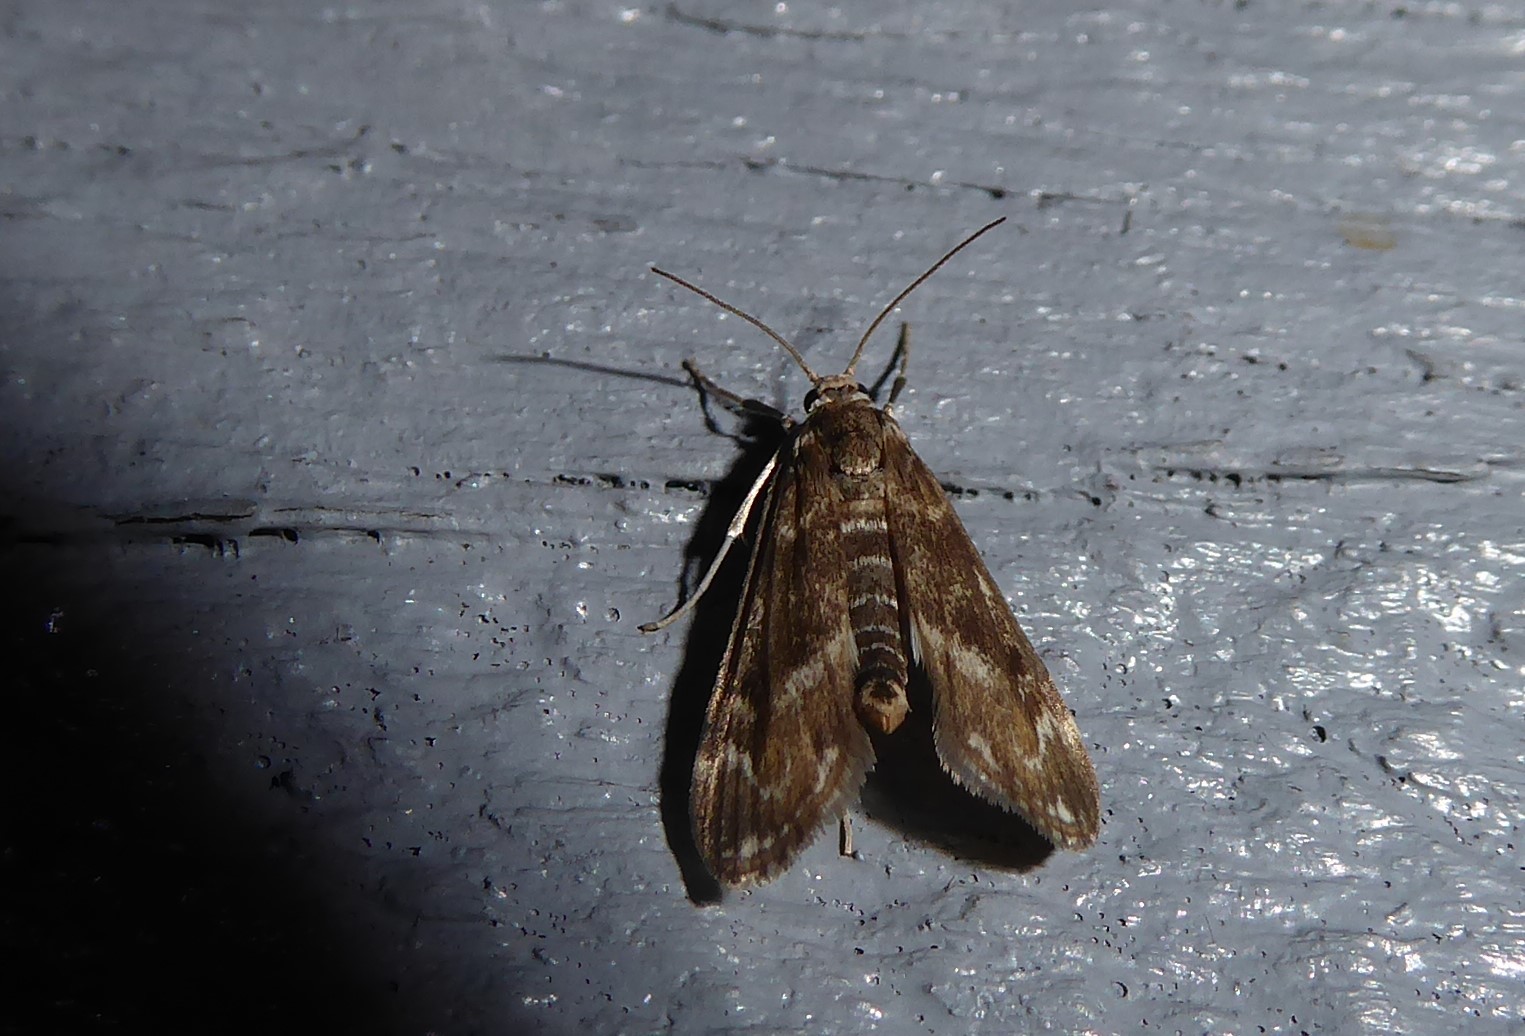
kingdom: Animalia
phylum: Arthropoda
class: Insecta
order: Lepidoptera
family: Crambidae
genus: Hygraula
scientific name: Hygraula nitens
